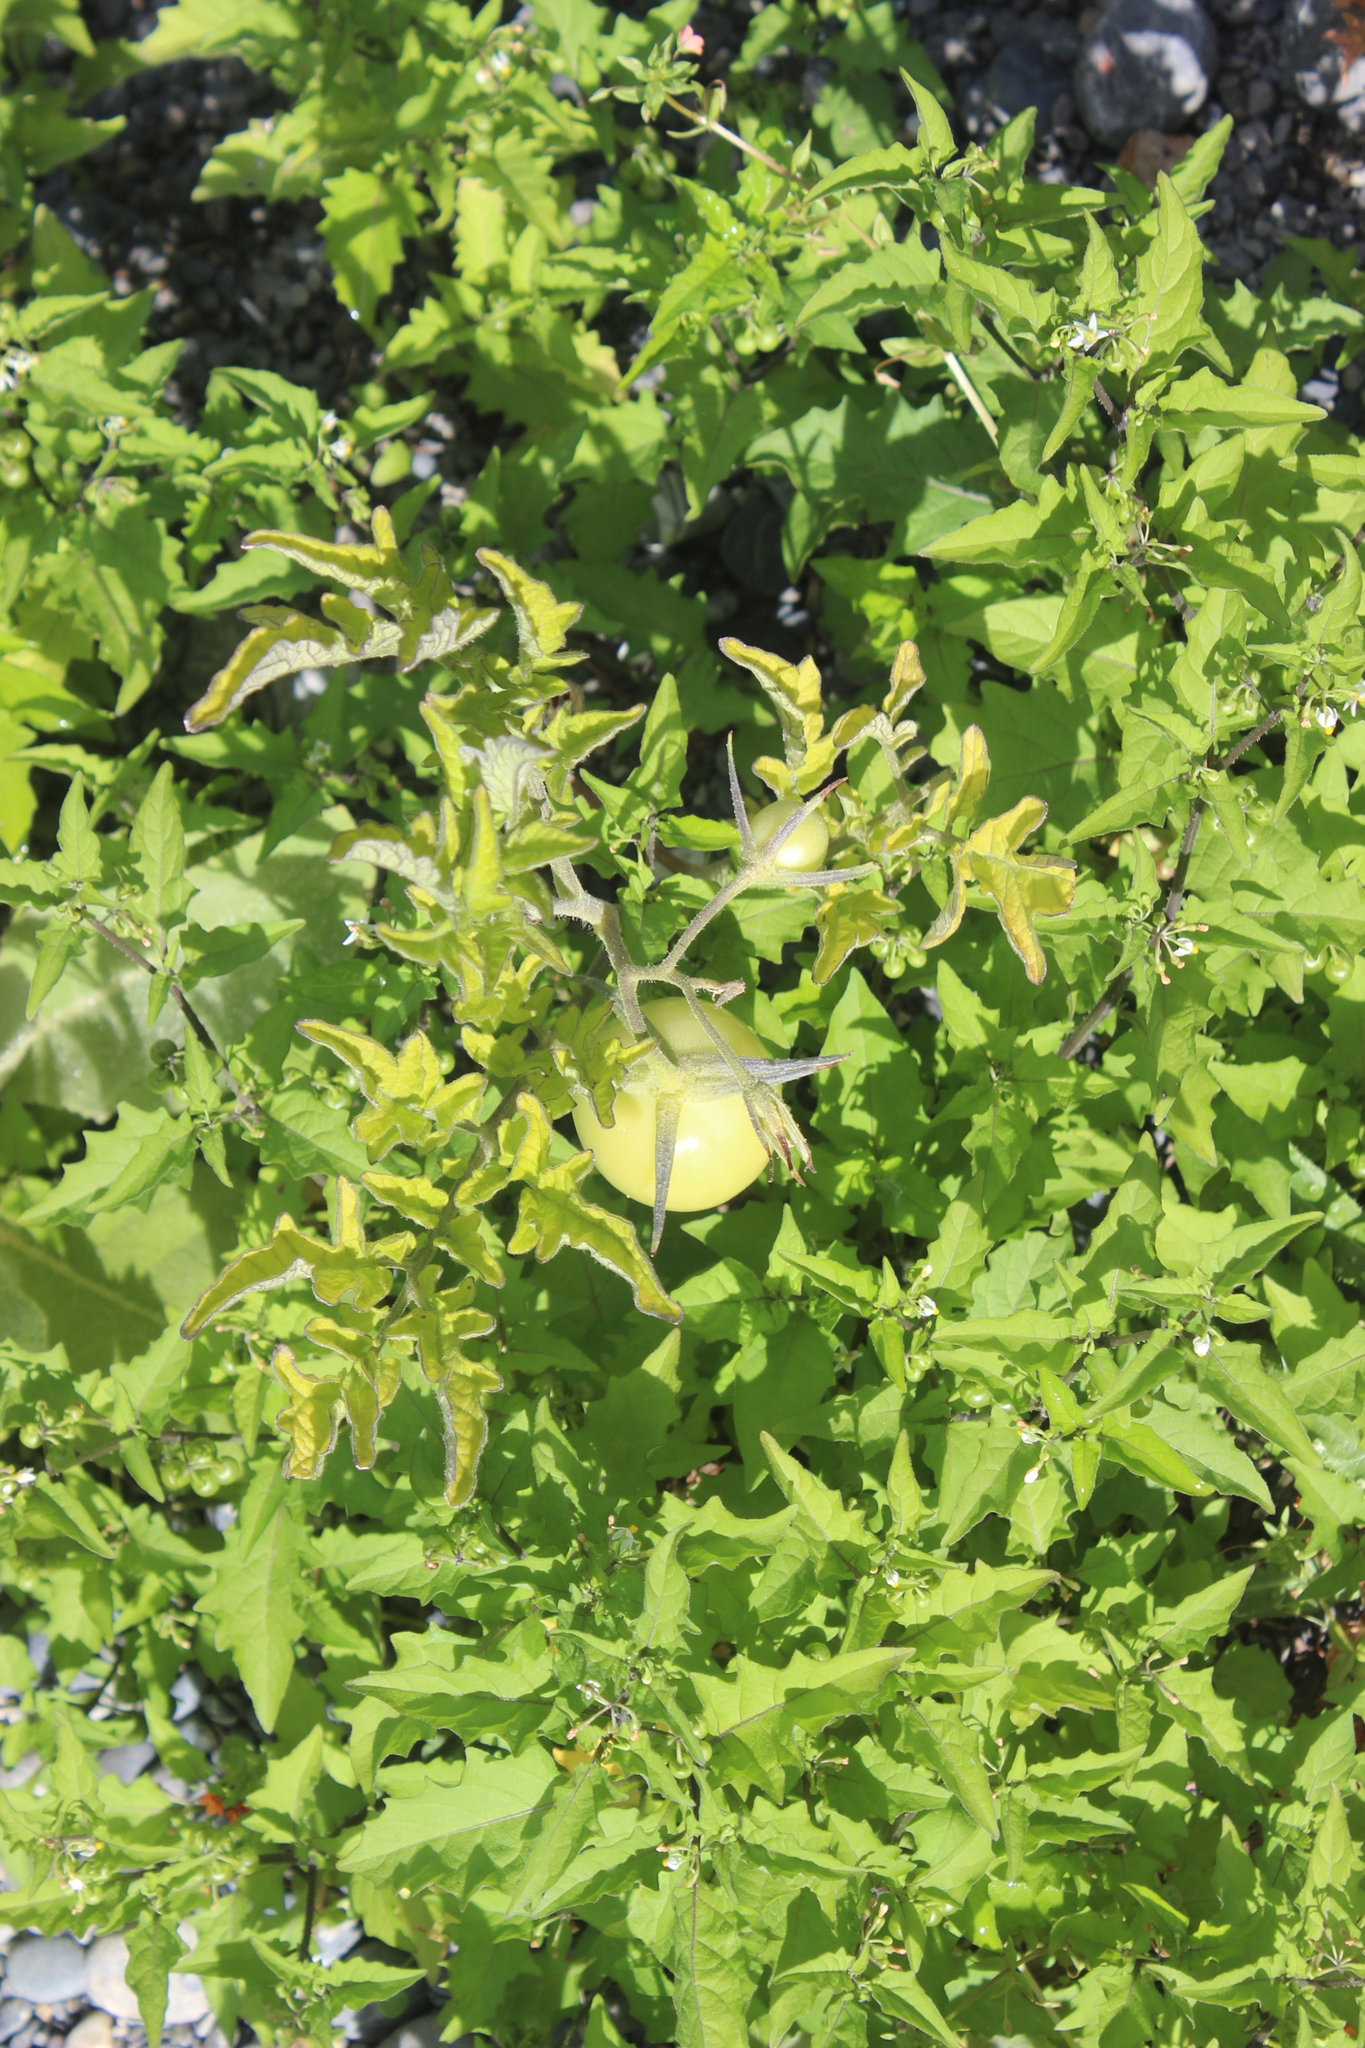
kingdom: Plantae
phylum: Tracheophyta
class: Magnoliopsida
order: Solanales
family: Solanaceae
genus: Solanum
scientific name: Solanum lycopersicum
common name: Garden tomato
